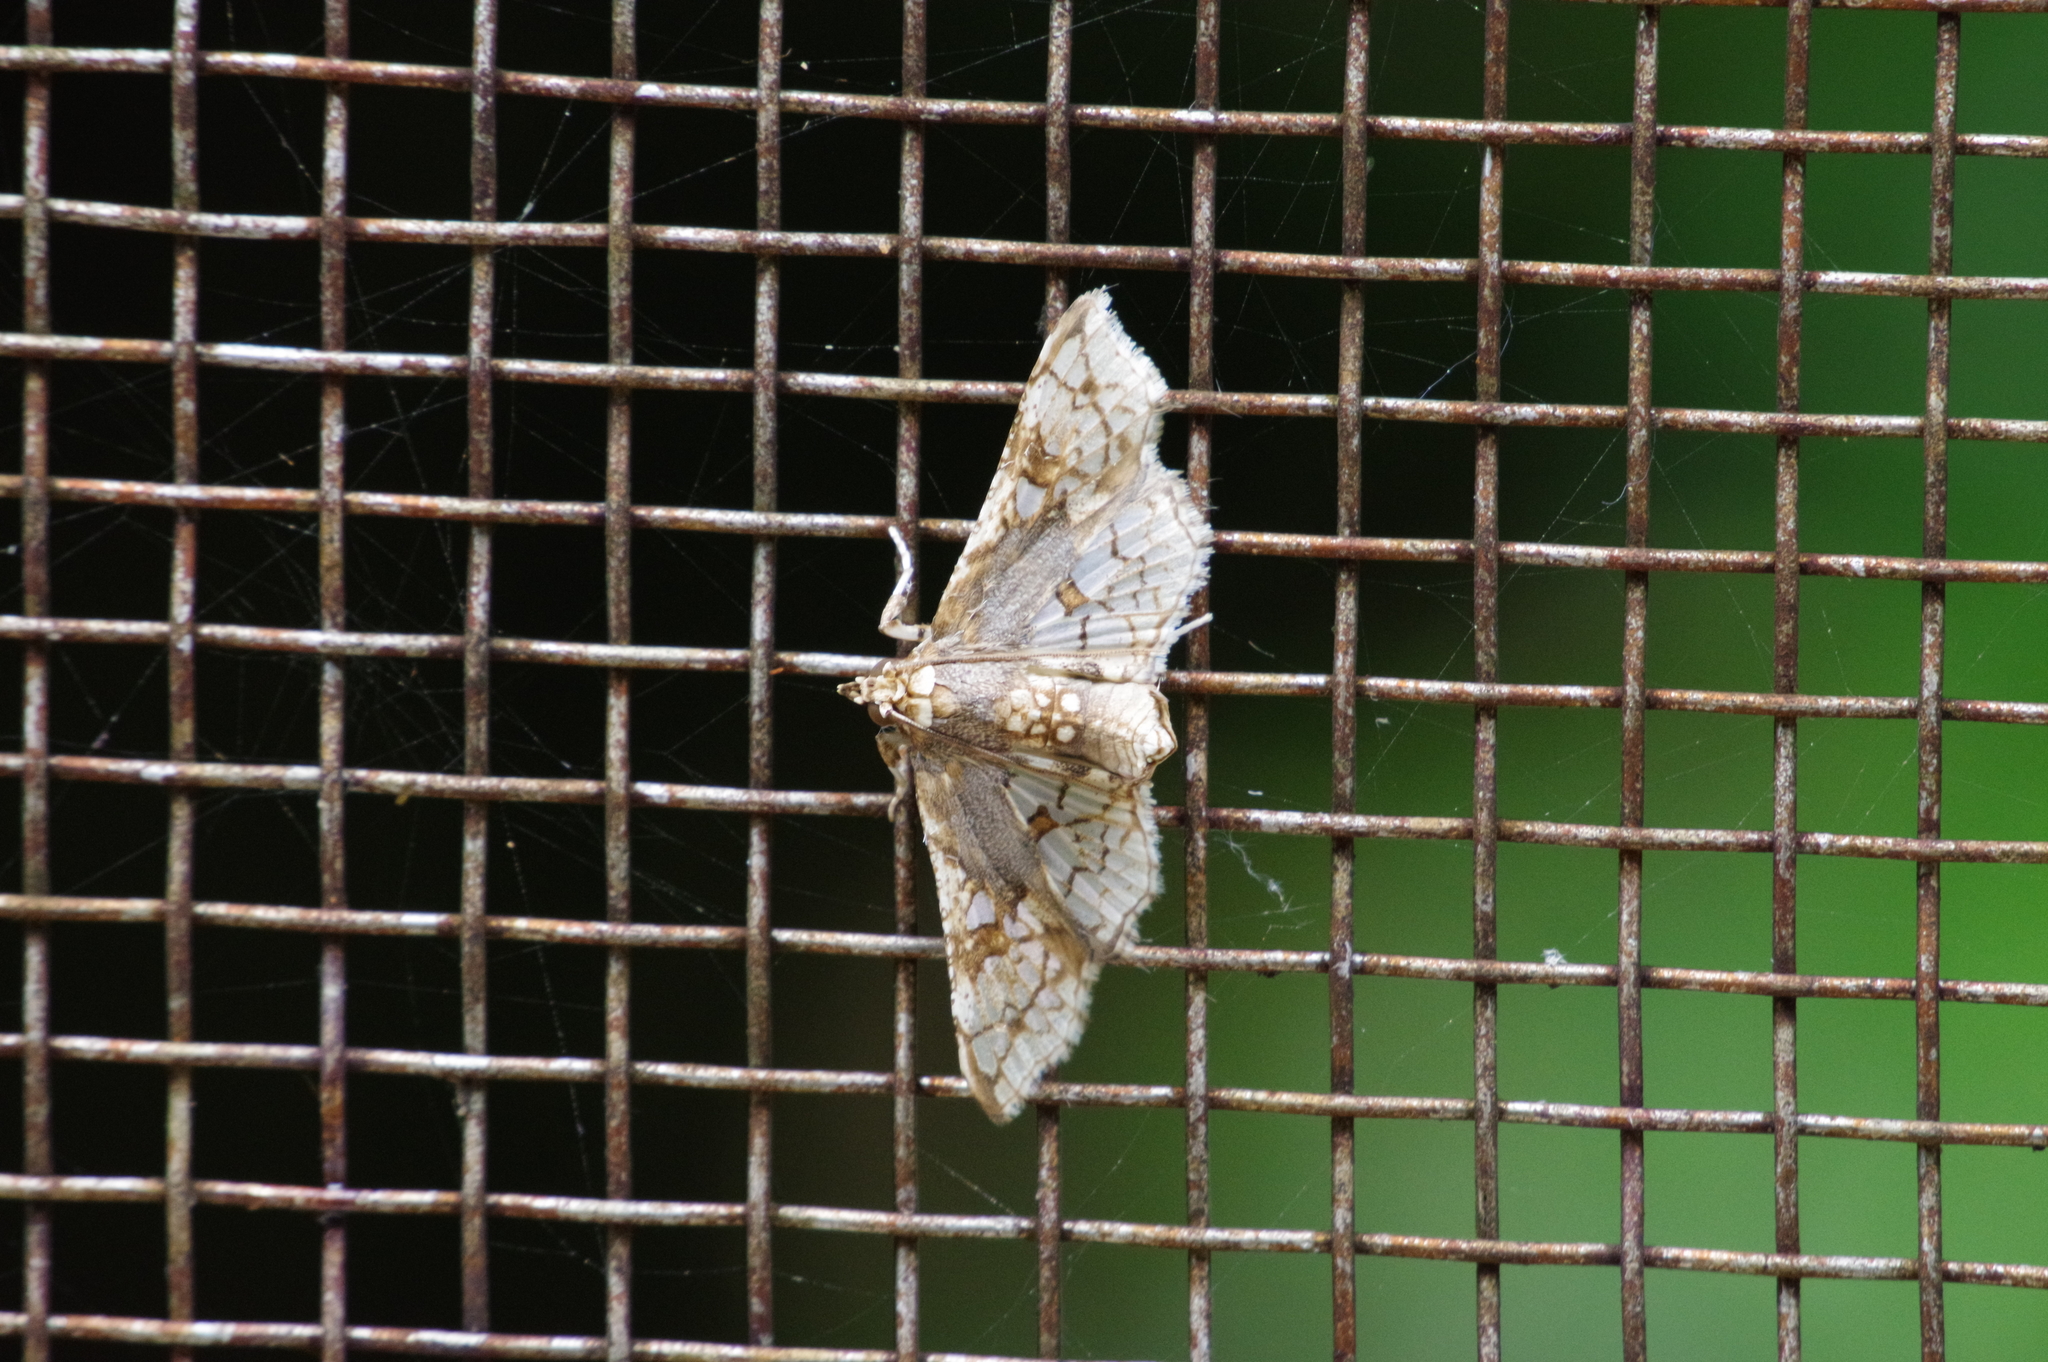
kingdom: Animalia
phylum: Arthropoda
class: Insecta
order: Lepidoptera
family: Crambidae
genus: Omphisa
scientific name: Omphisa anastomosalis
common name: Sweetpotato vineborer
